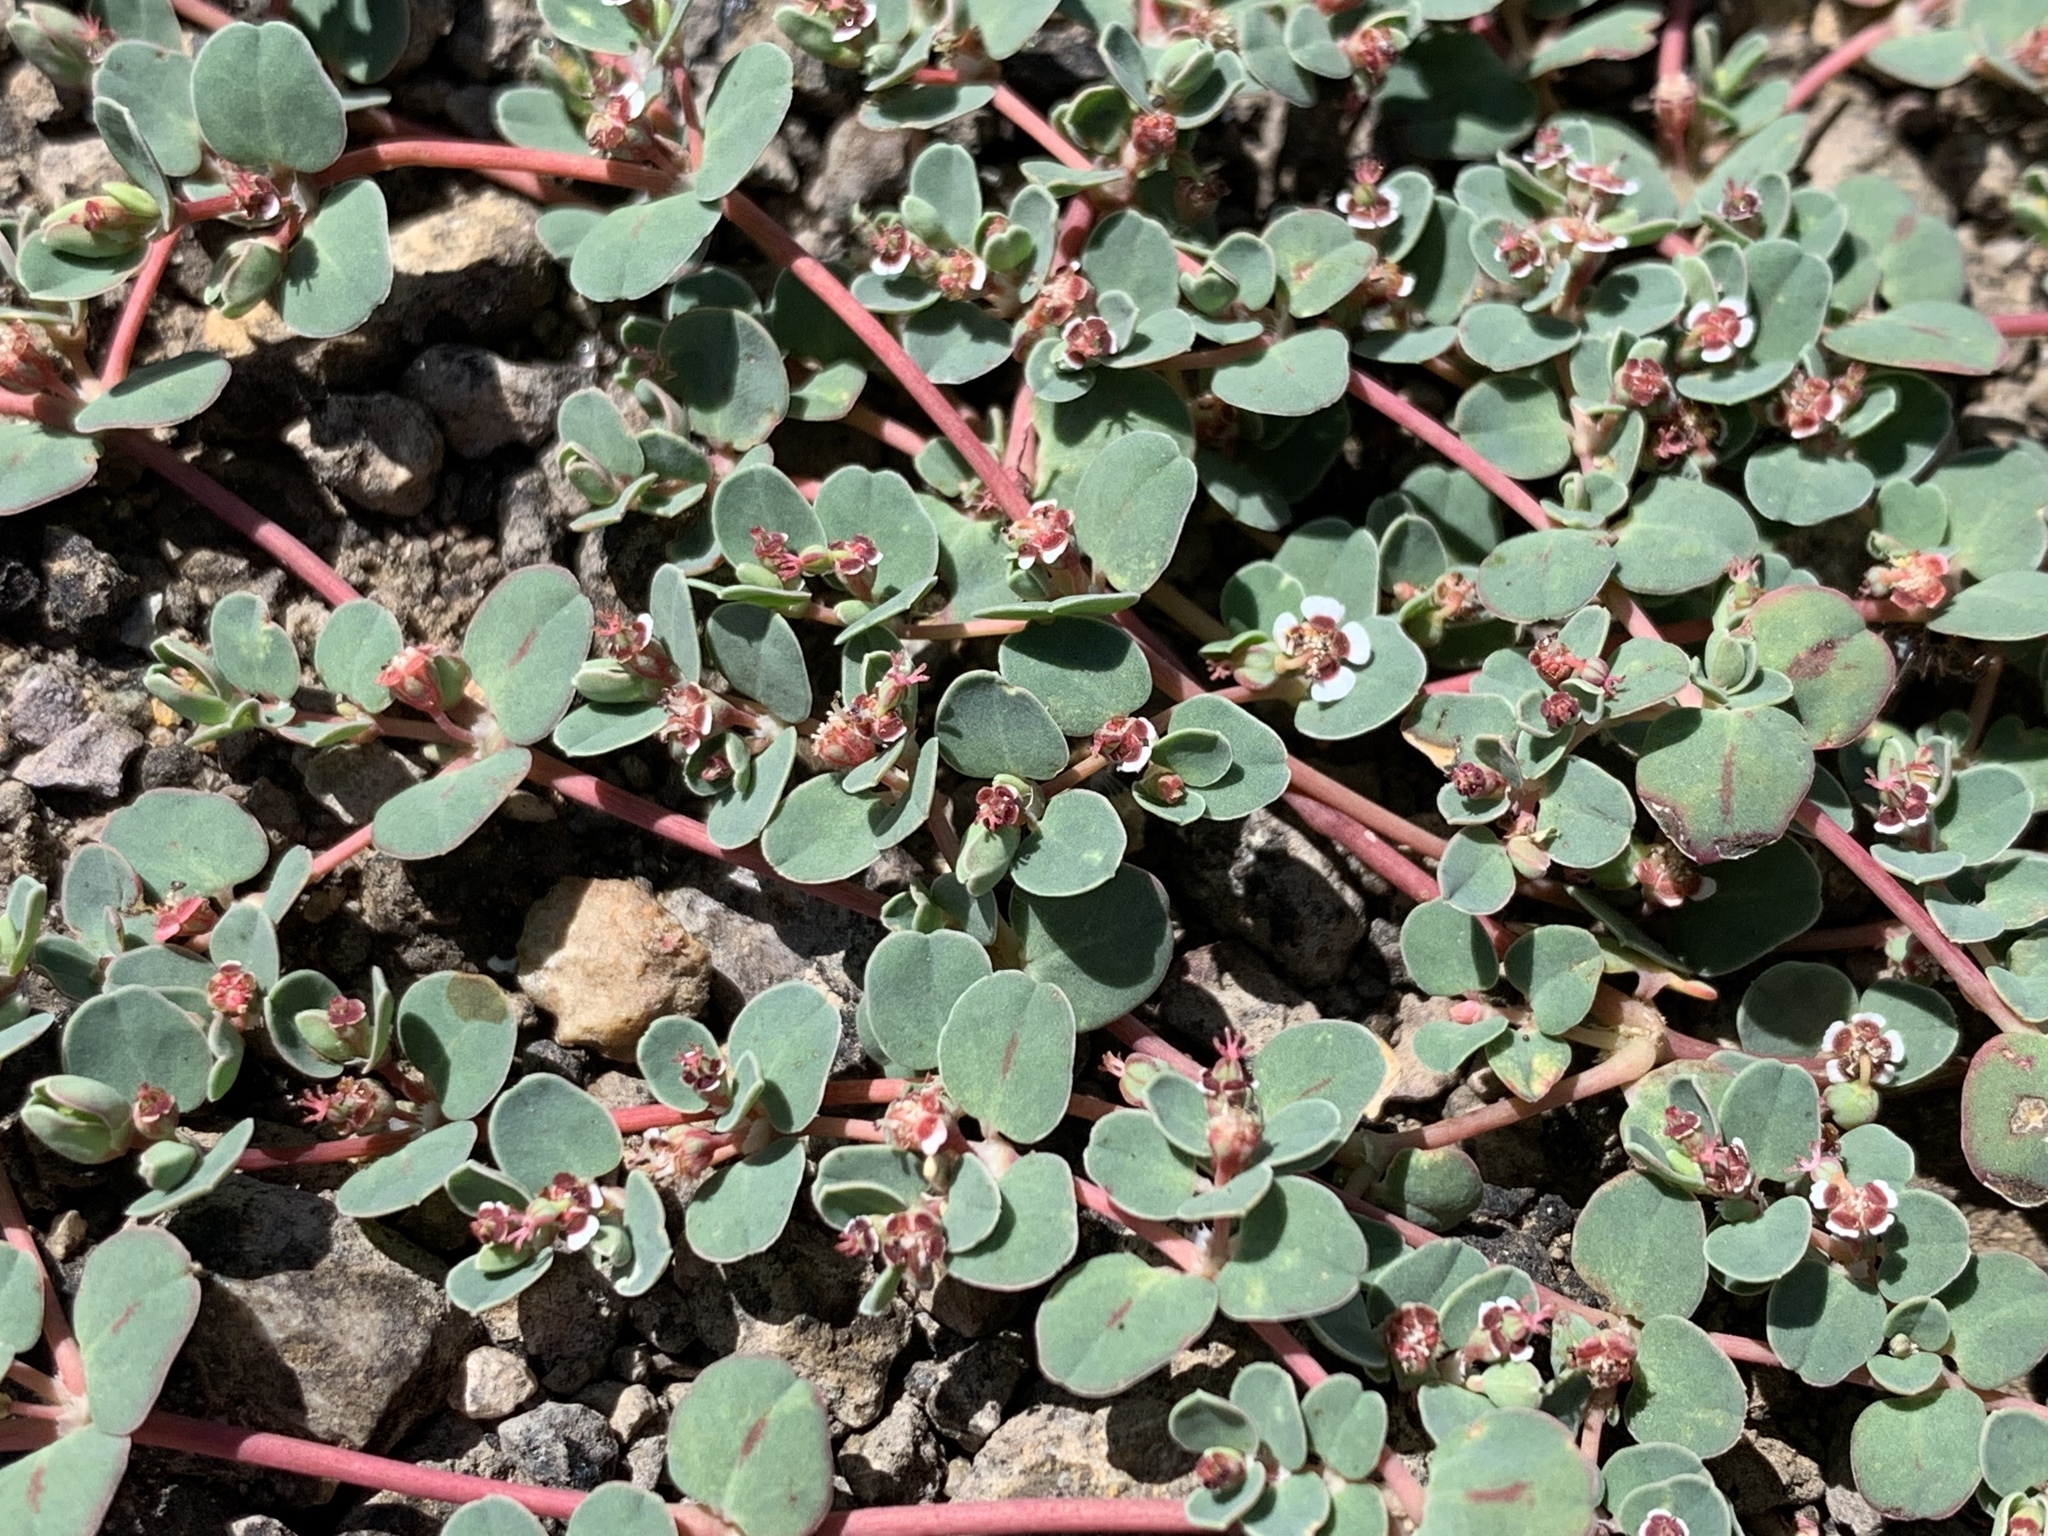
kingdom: Plantae
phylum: Tracheophyta
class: Magnoliopsida
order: Malpighiales
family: Euphorbiaceae
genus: Euphorbia
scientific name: Euphorbia albomarginata
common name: Whitemargin sandmat
